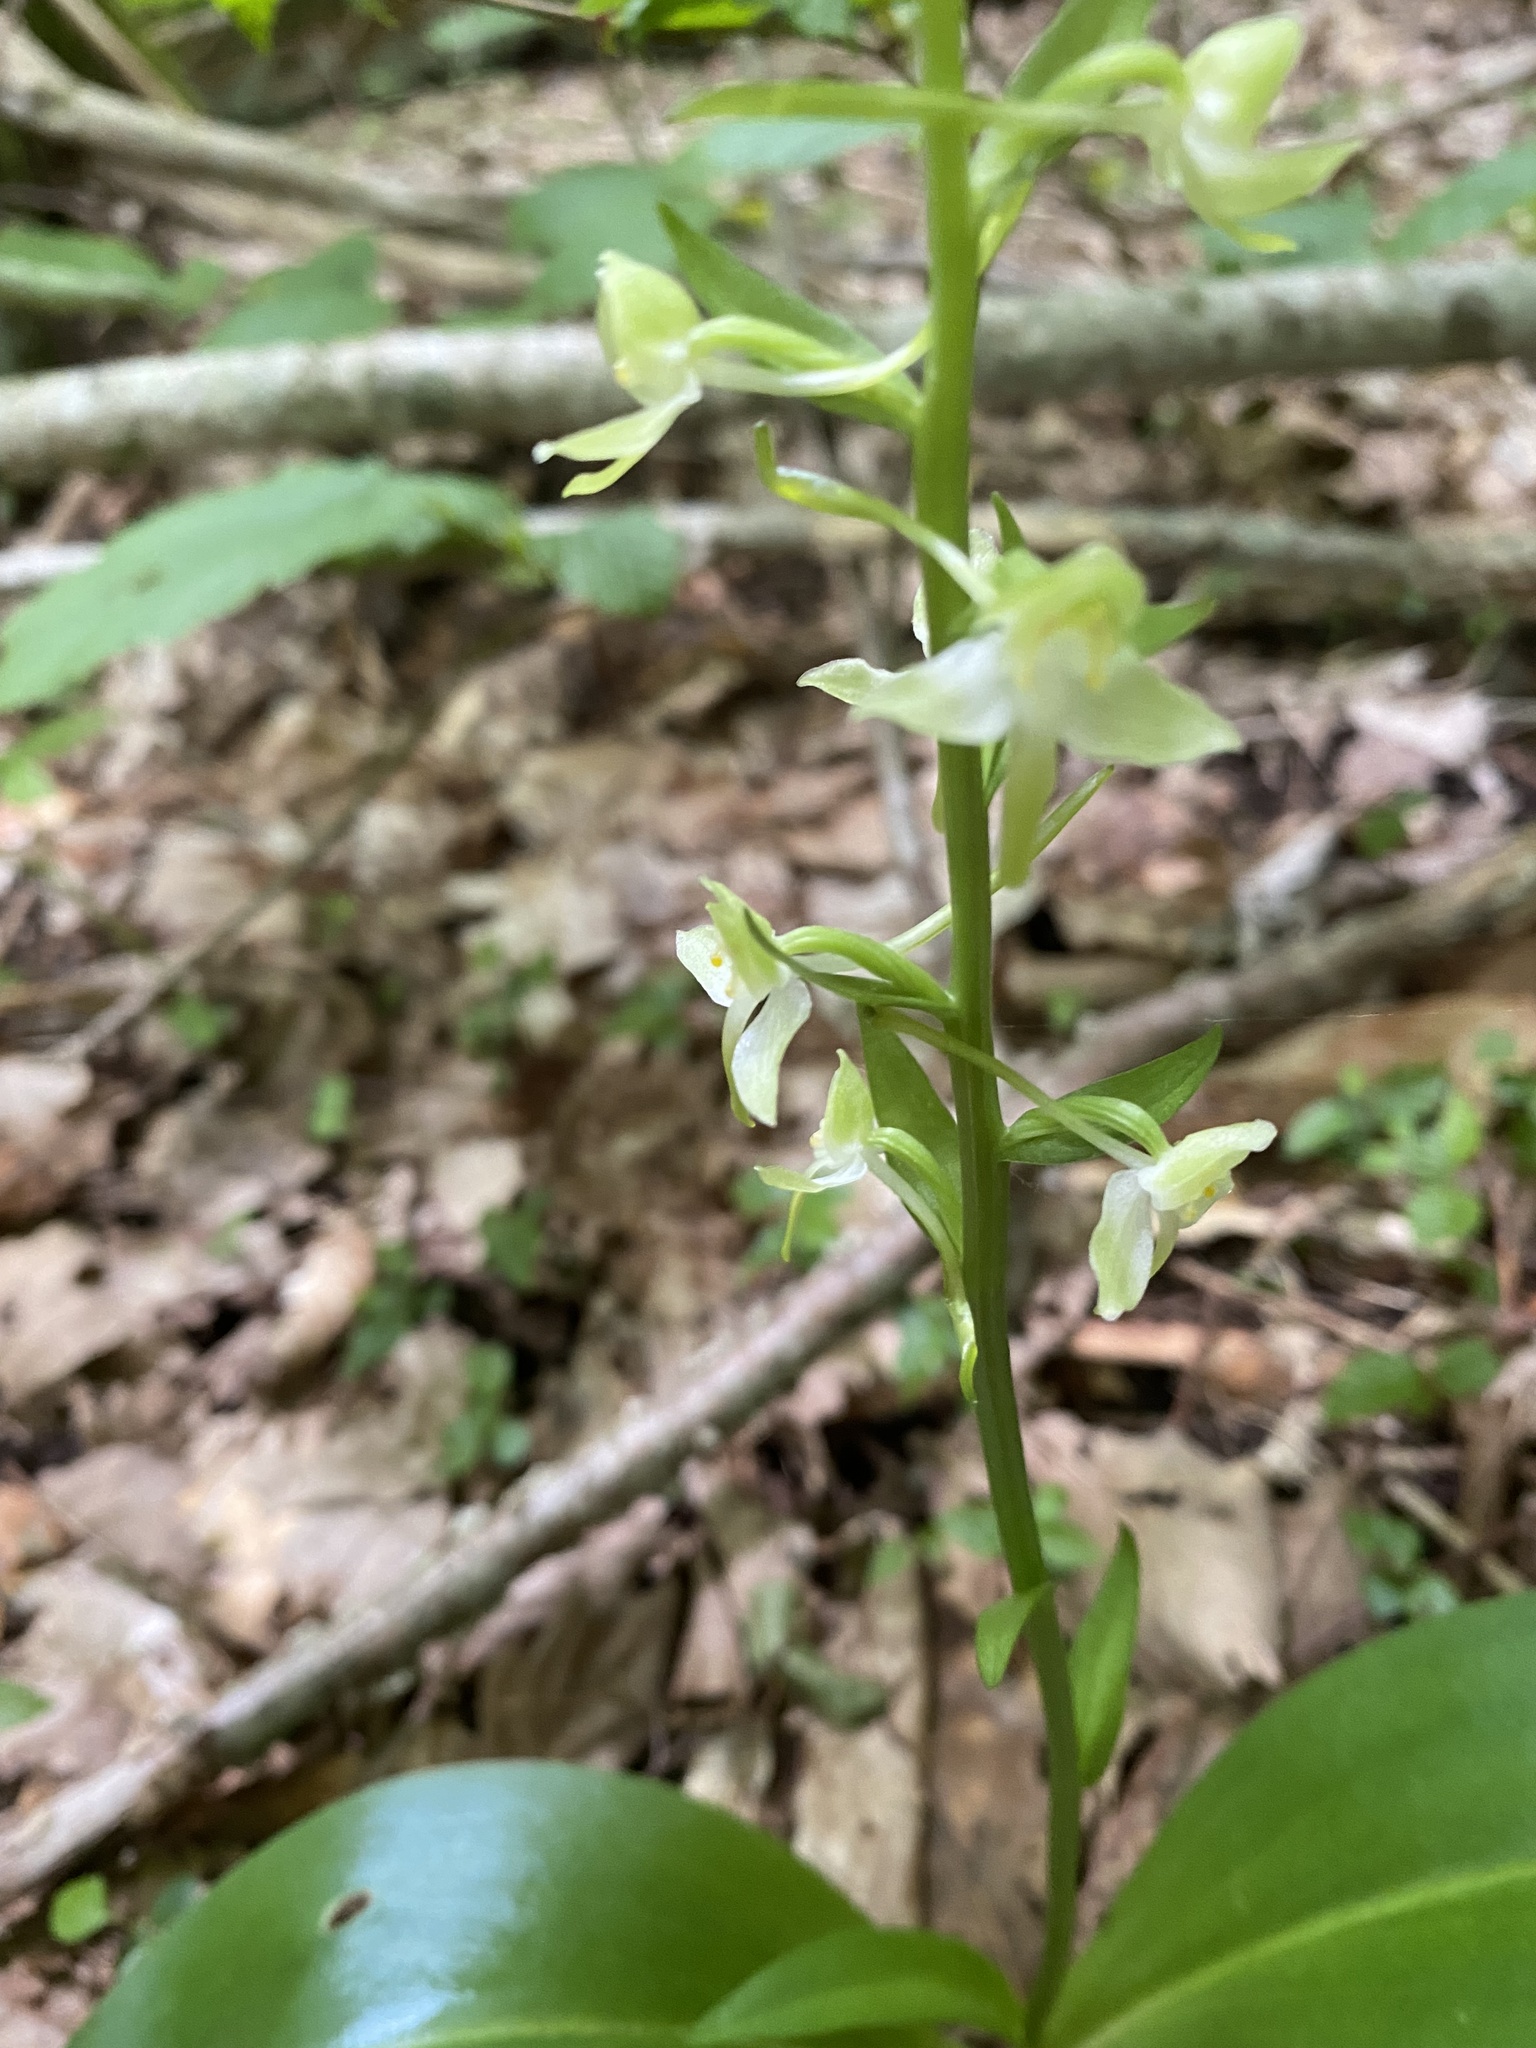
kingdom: Plantae
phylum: Tracheophyta
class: Liliopsida
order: Asparagales
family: Orchidaceae
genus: Platanthera
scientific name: Platanthera chlorantha
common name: Greater butterfly-orchid
